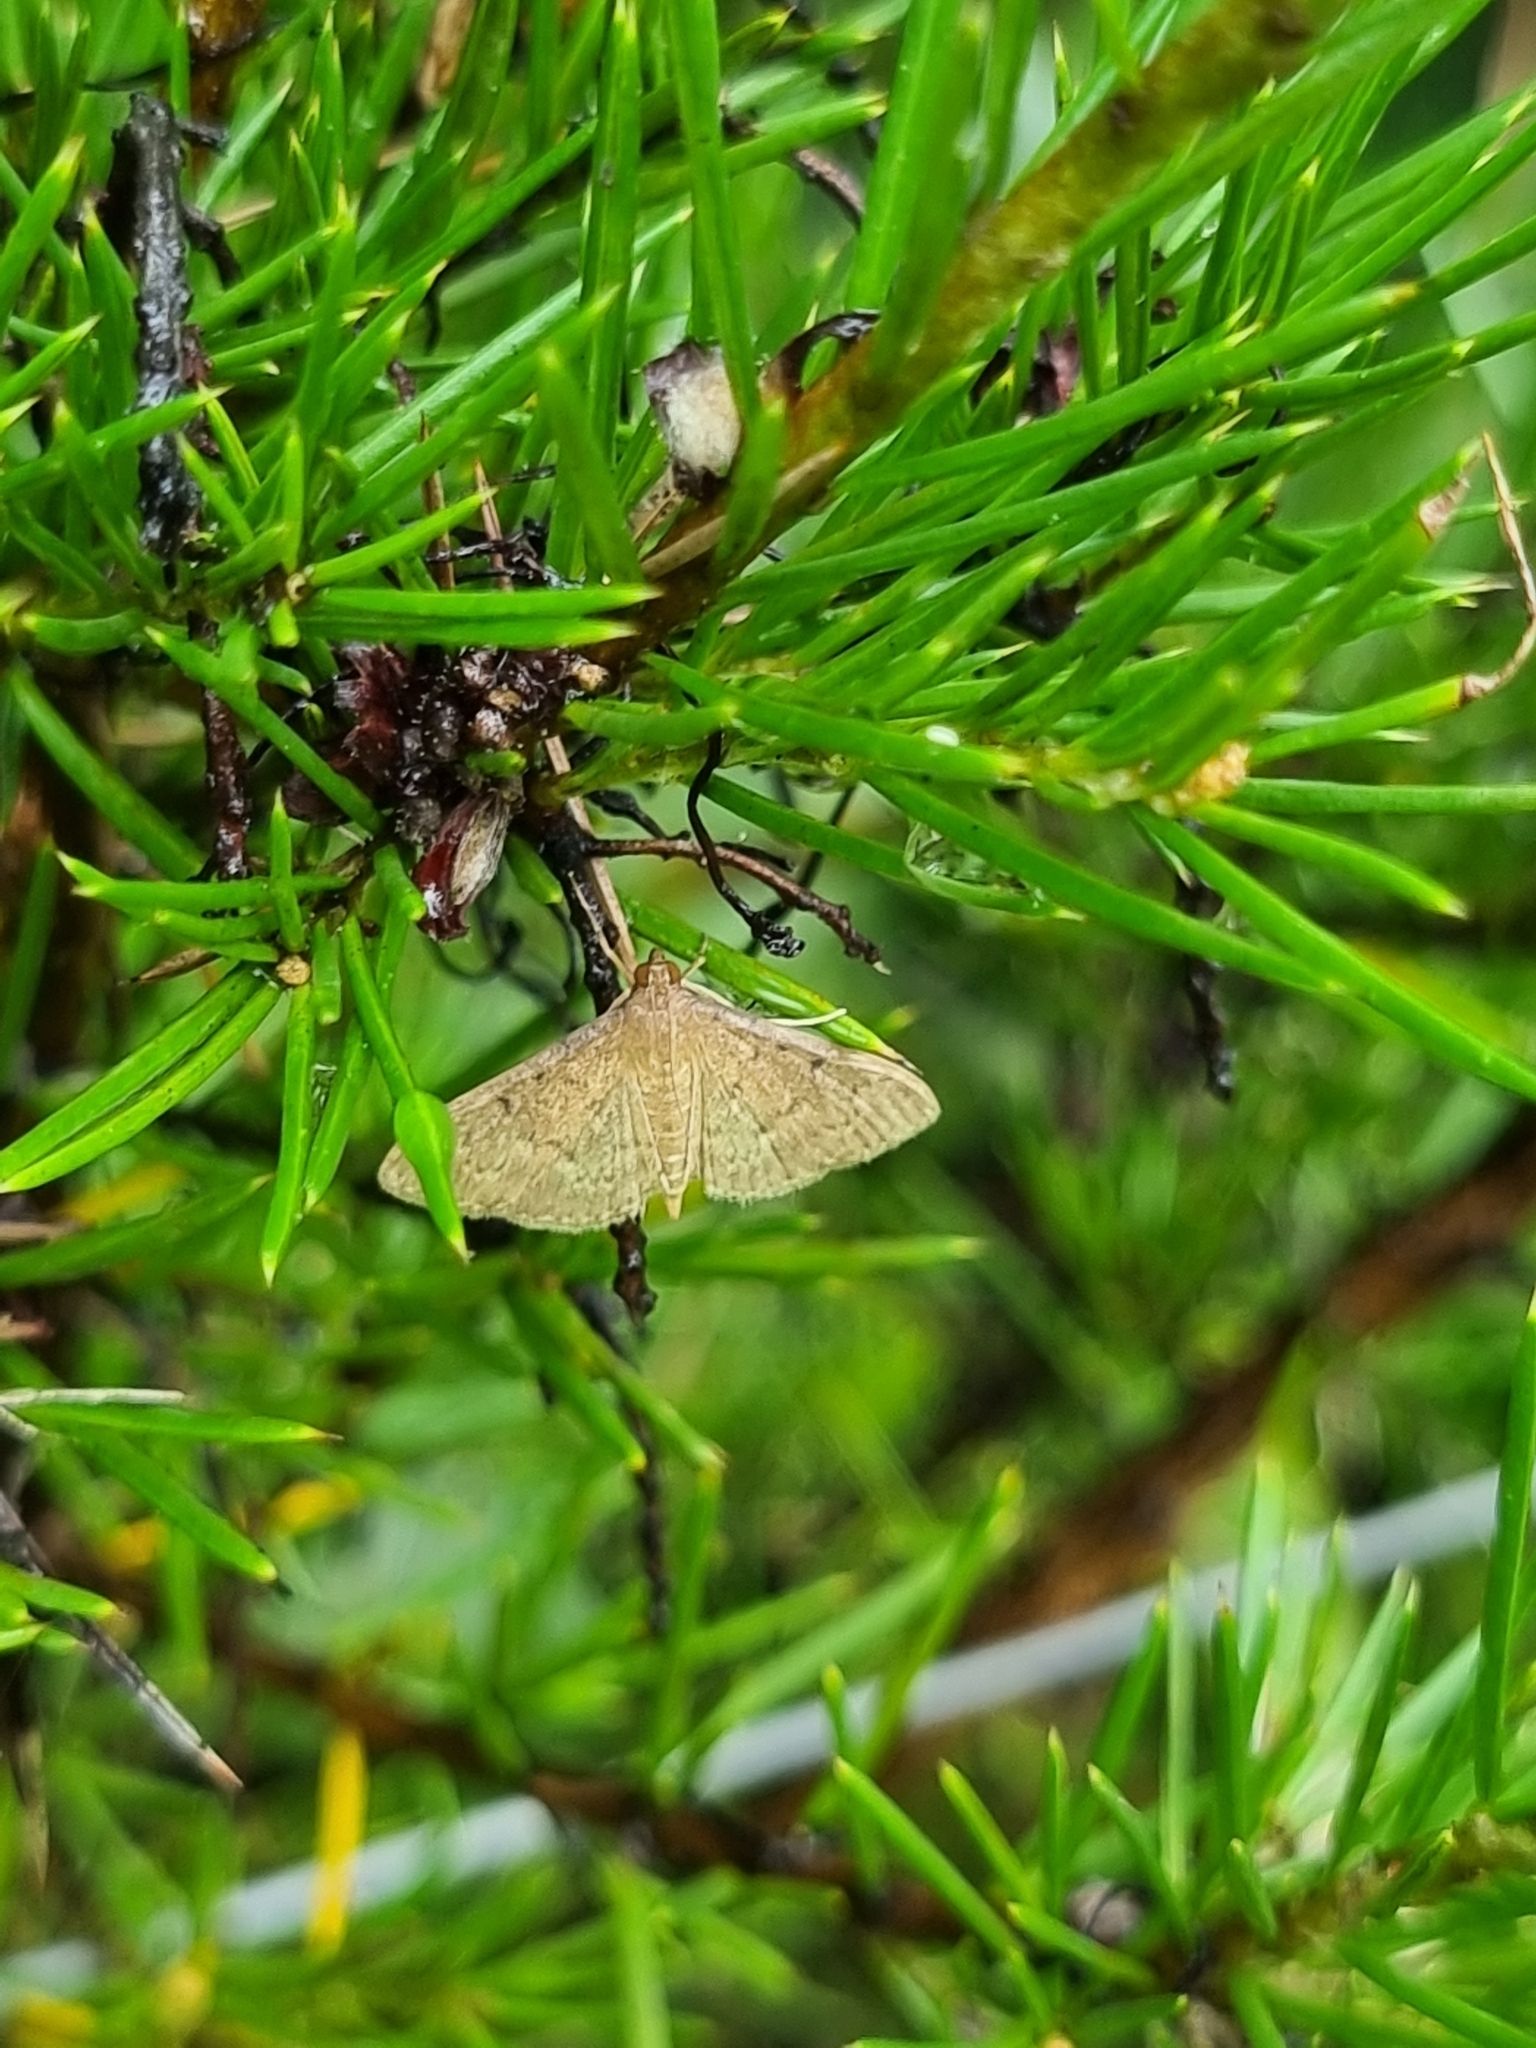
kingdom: Animalia
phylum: Arthropoda
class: Insecta
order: Lepidoptera
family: Crambidae
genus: Herpetogramma
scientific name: Herpetogramma licarsisalis
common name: Grass webworm
